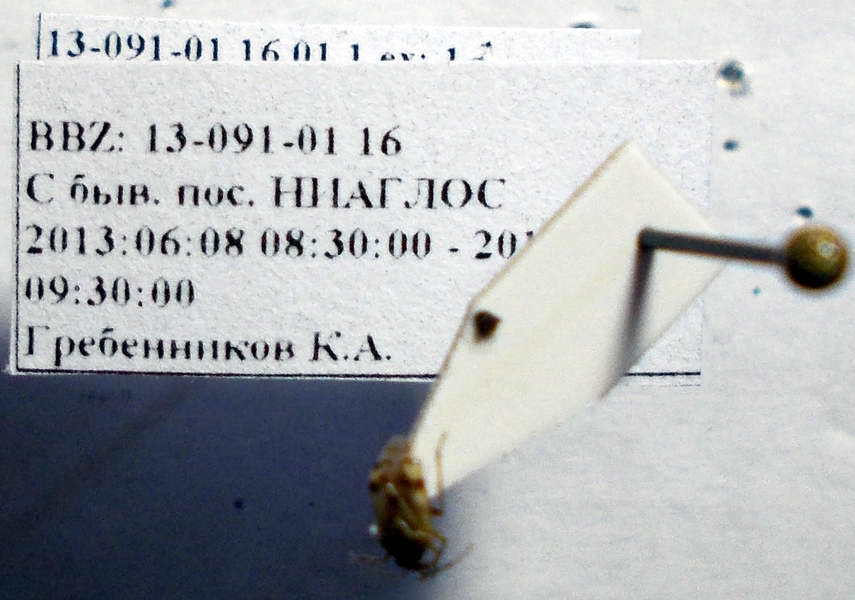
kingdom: Animalia
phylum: Arthropoda
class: Insecta
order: Hemiptera
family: Miridae
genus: Deraeocoris
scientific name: Deraeocoris serenus
